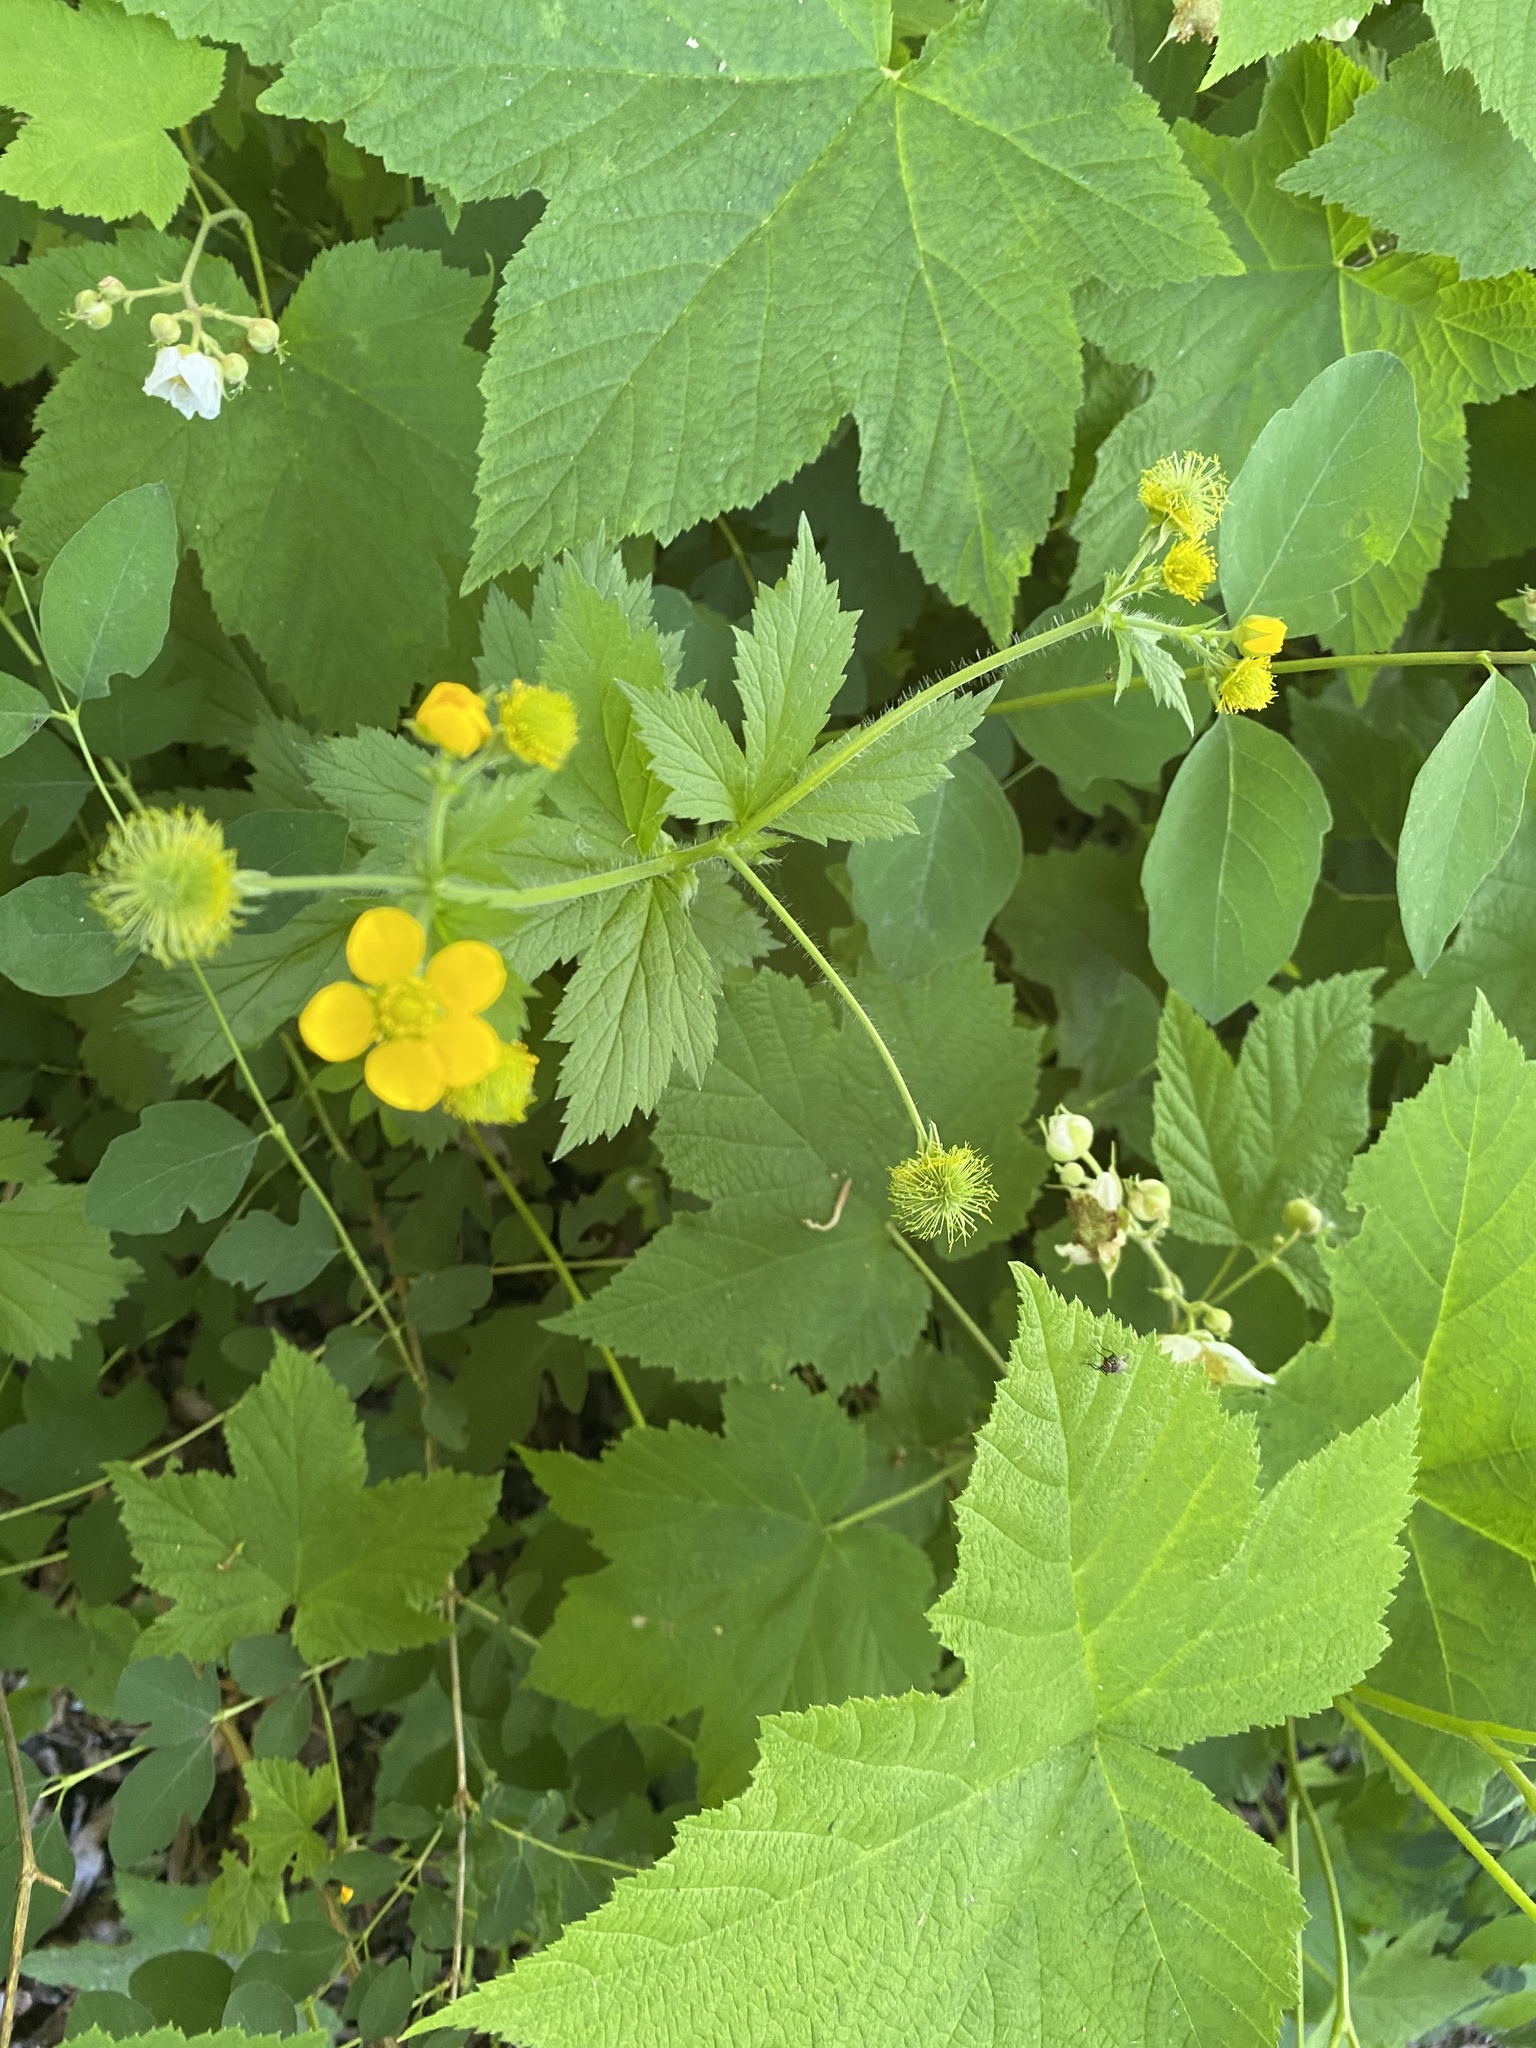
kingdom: Plantae
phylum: Tracheophyta
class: Magnoliopsida
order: Rosales
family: Rosaceae
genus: Geum
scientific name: Geum macrophyllum
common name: Large-leaved avens
